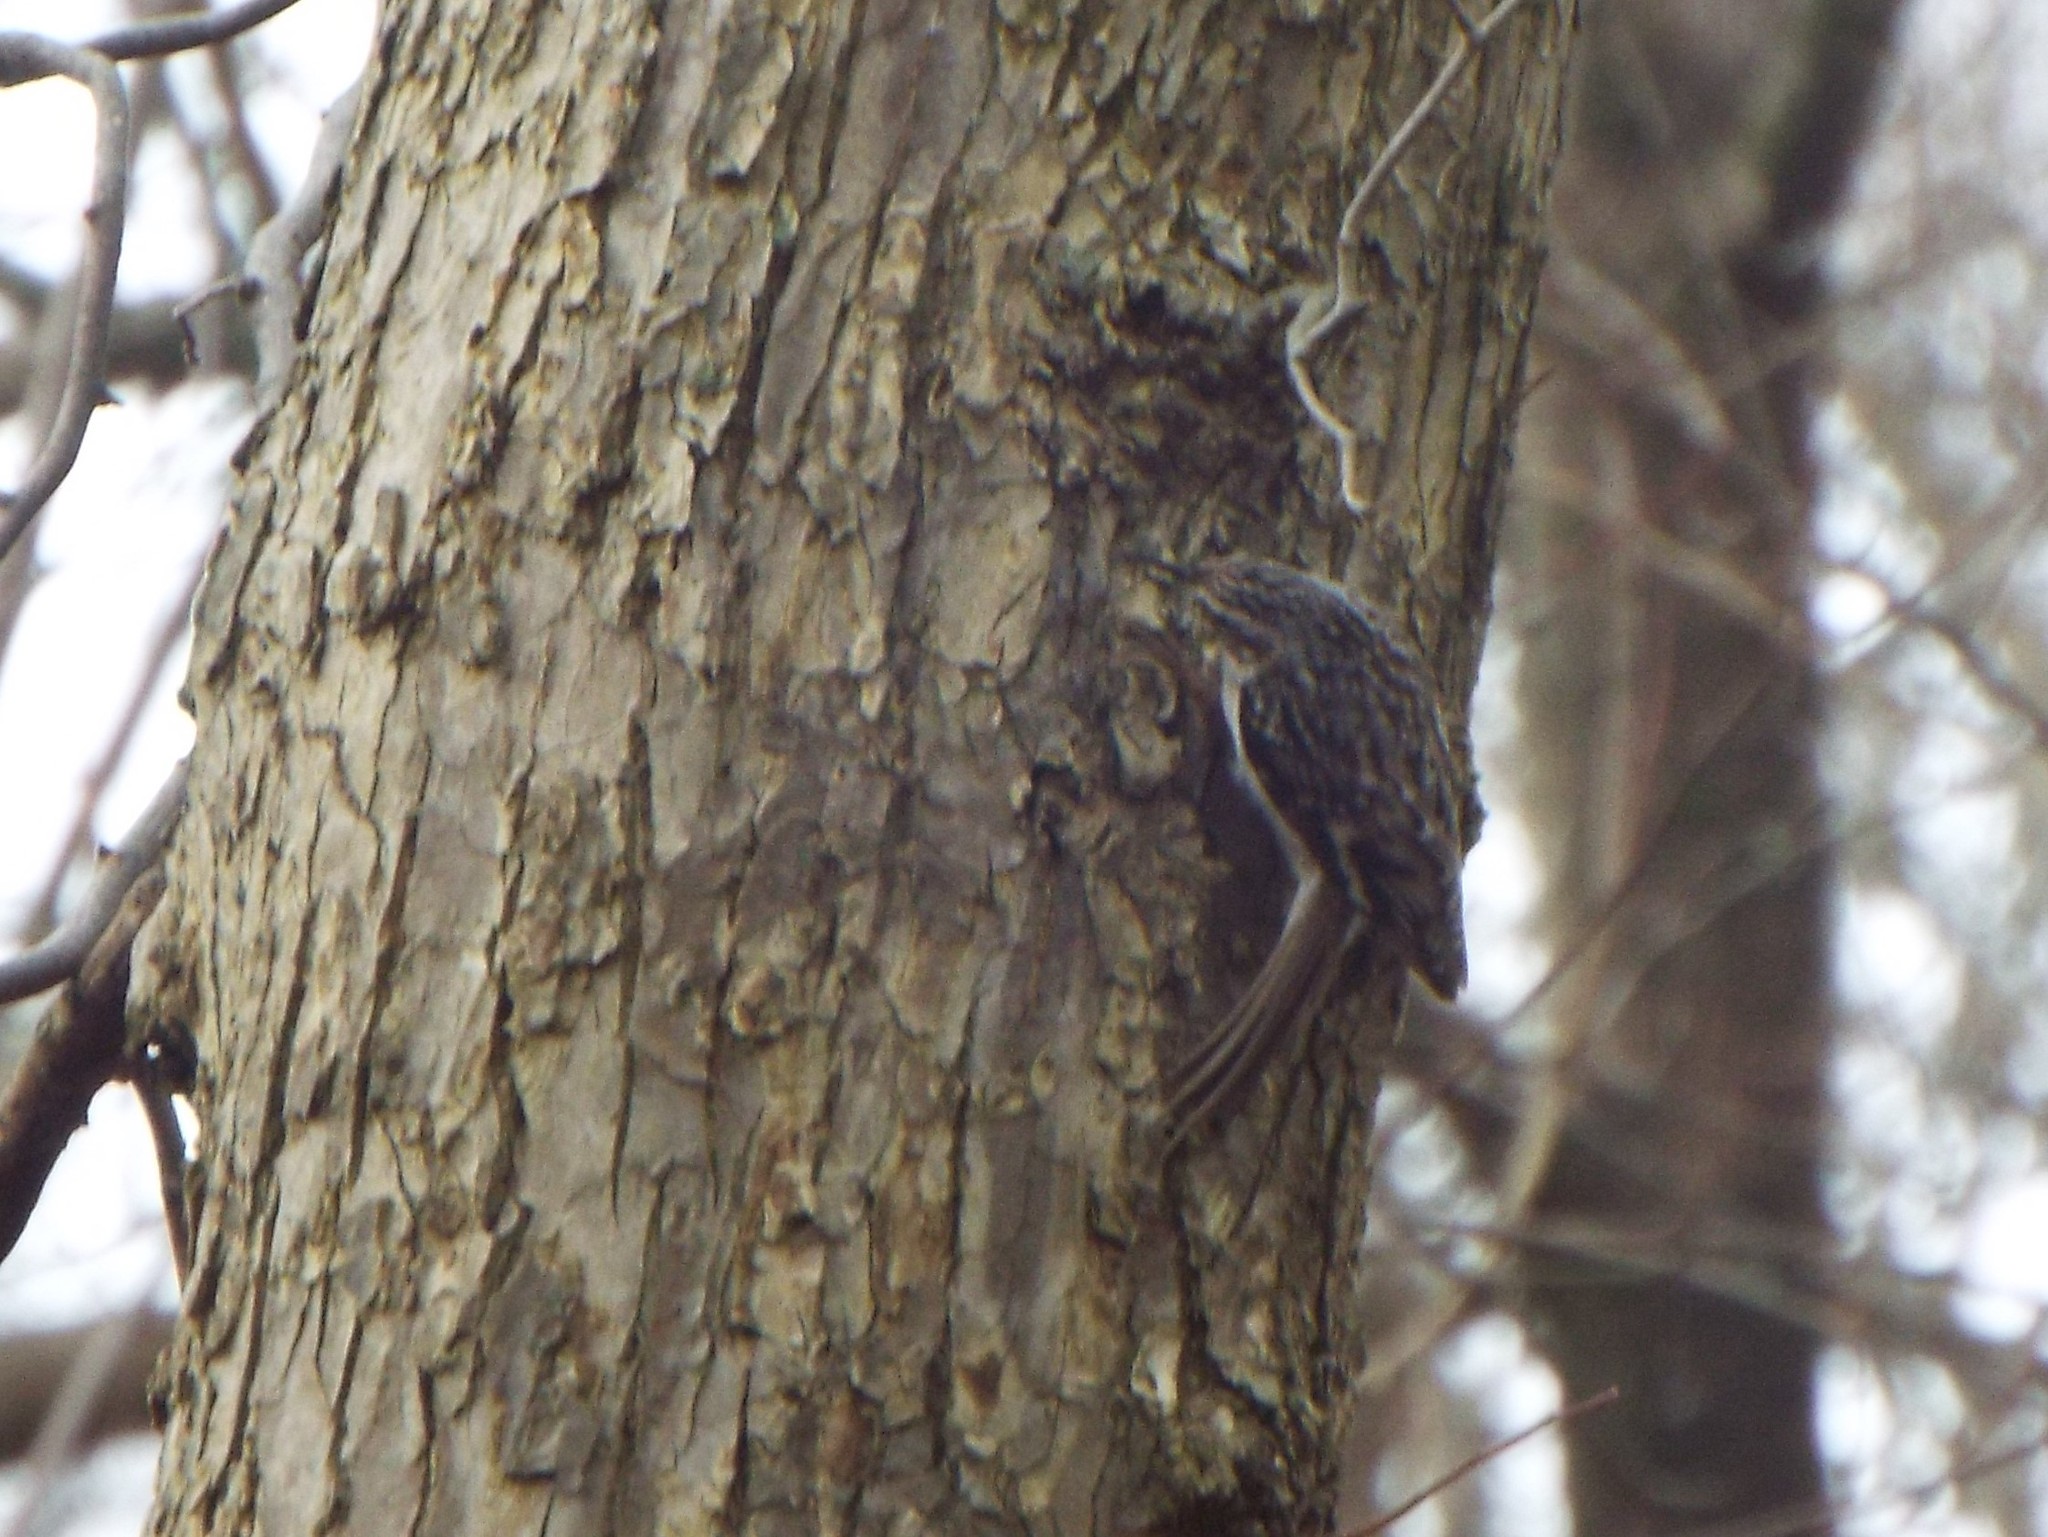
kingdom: Animalia
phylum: Chordata
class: Aves
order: Passeriformes
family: Certhiidae
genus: Certhia
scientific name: Certhia americana
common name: Brown creeper
